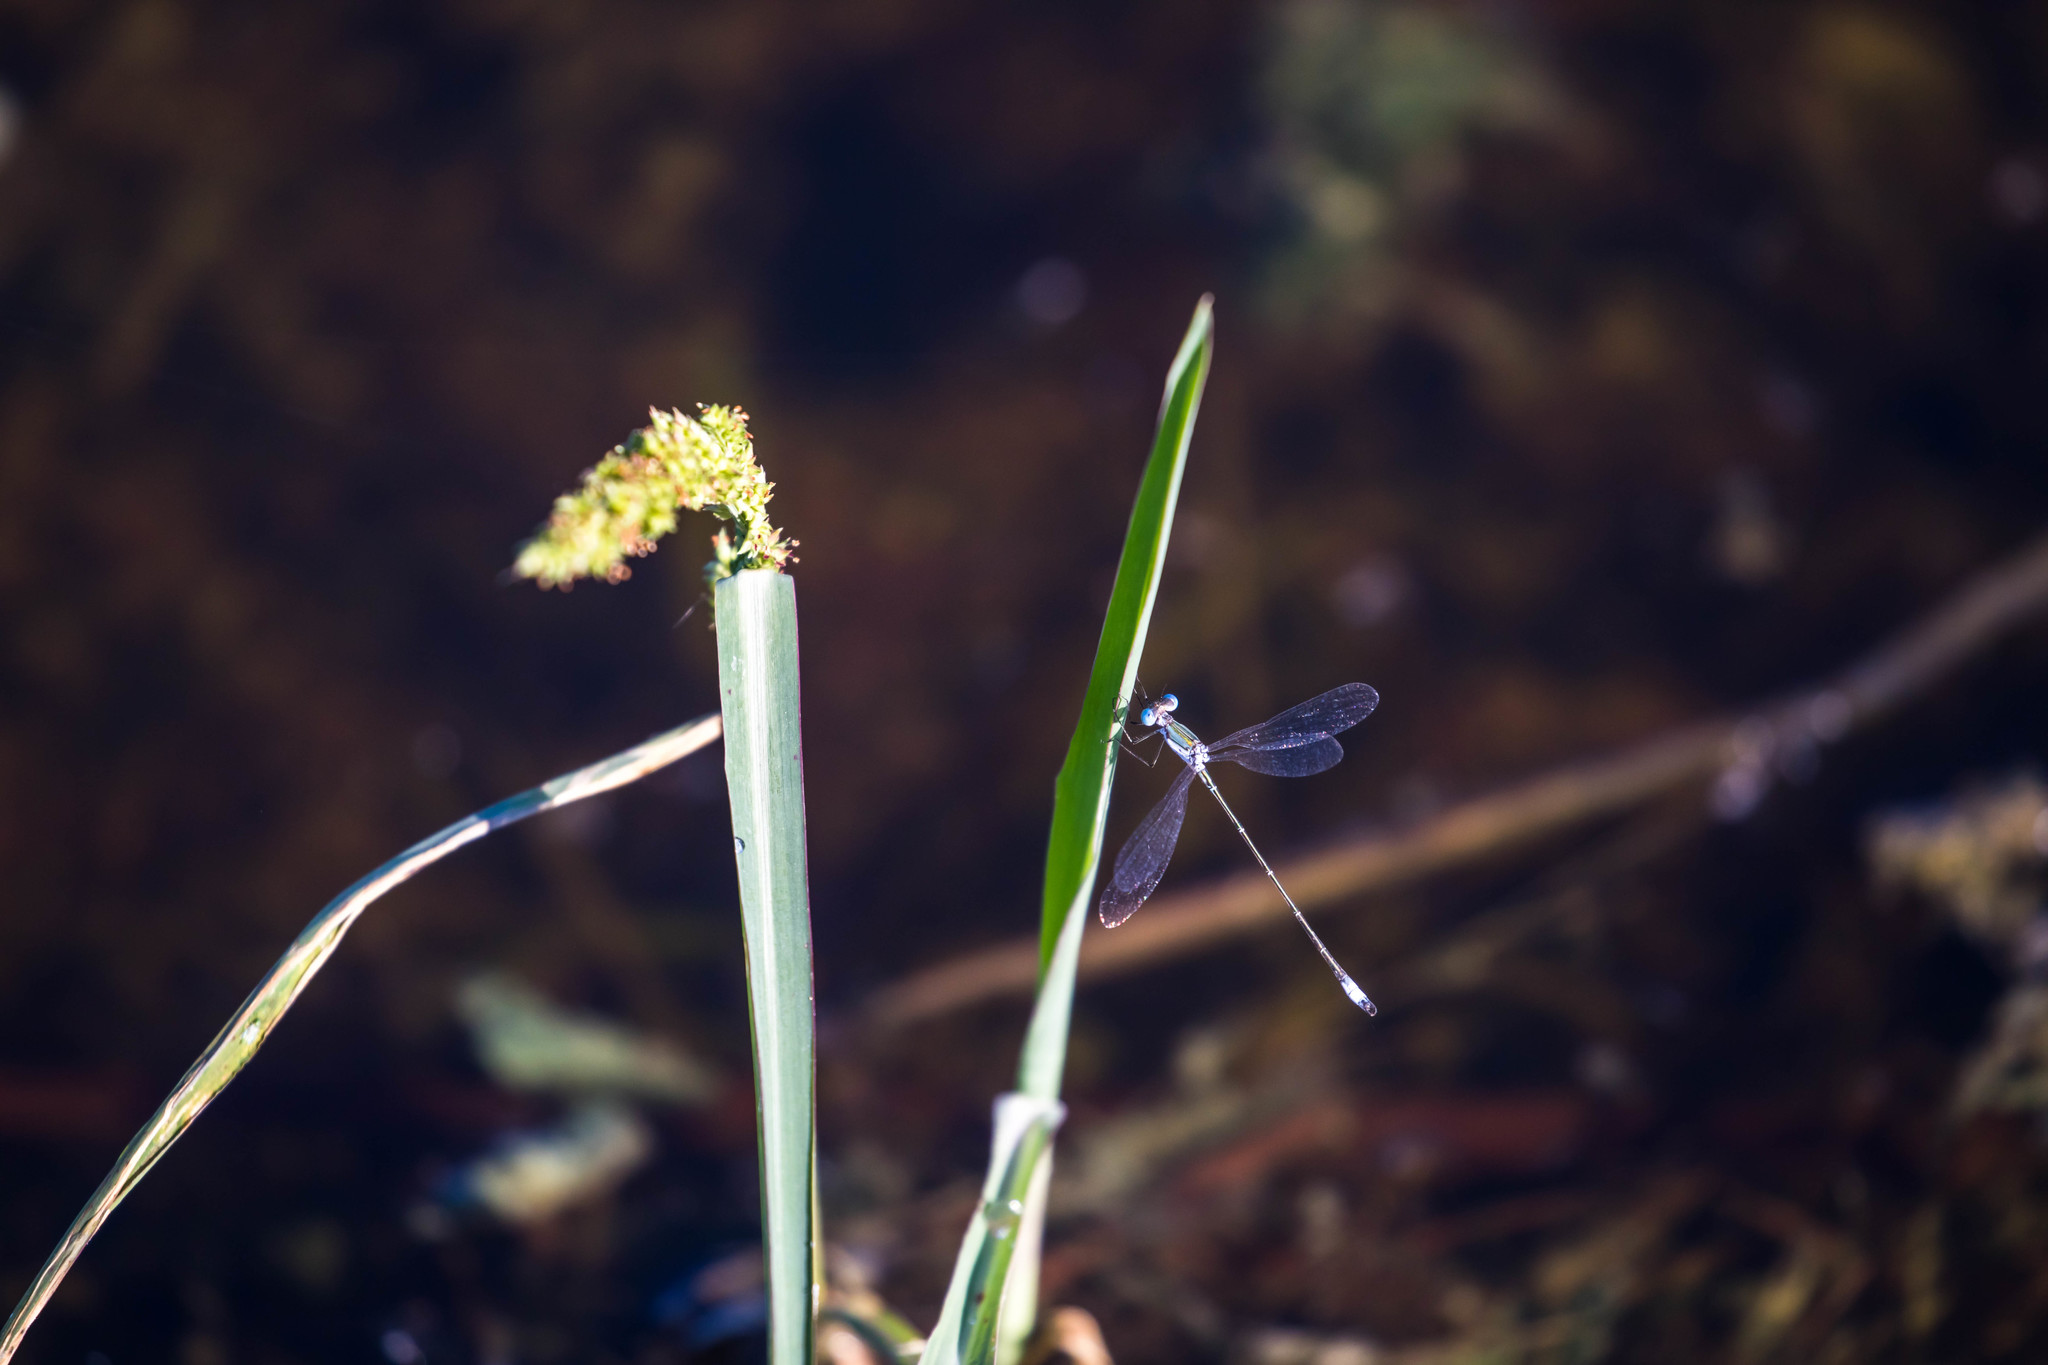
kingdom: Animalia
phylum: Arthropoda
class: Insecta
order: Odonata
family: Lestidae
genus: Lestes
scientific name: Lestes forficula
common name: Rainpool spreadwing
